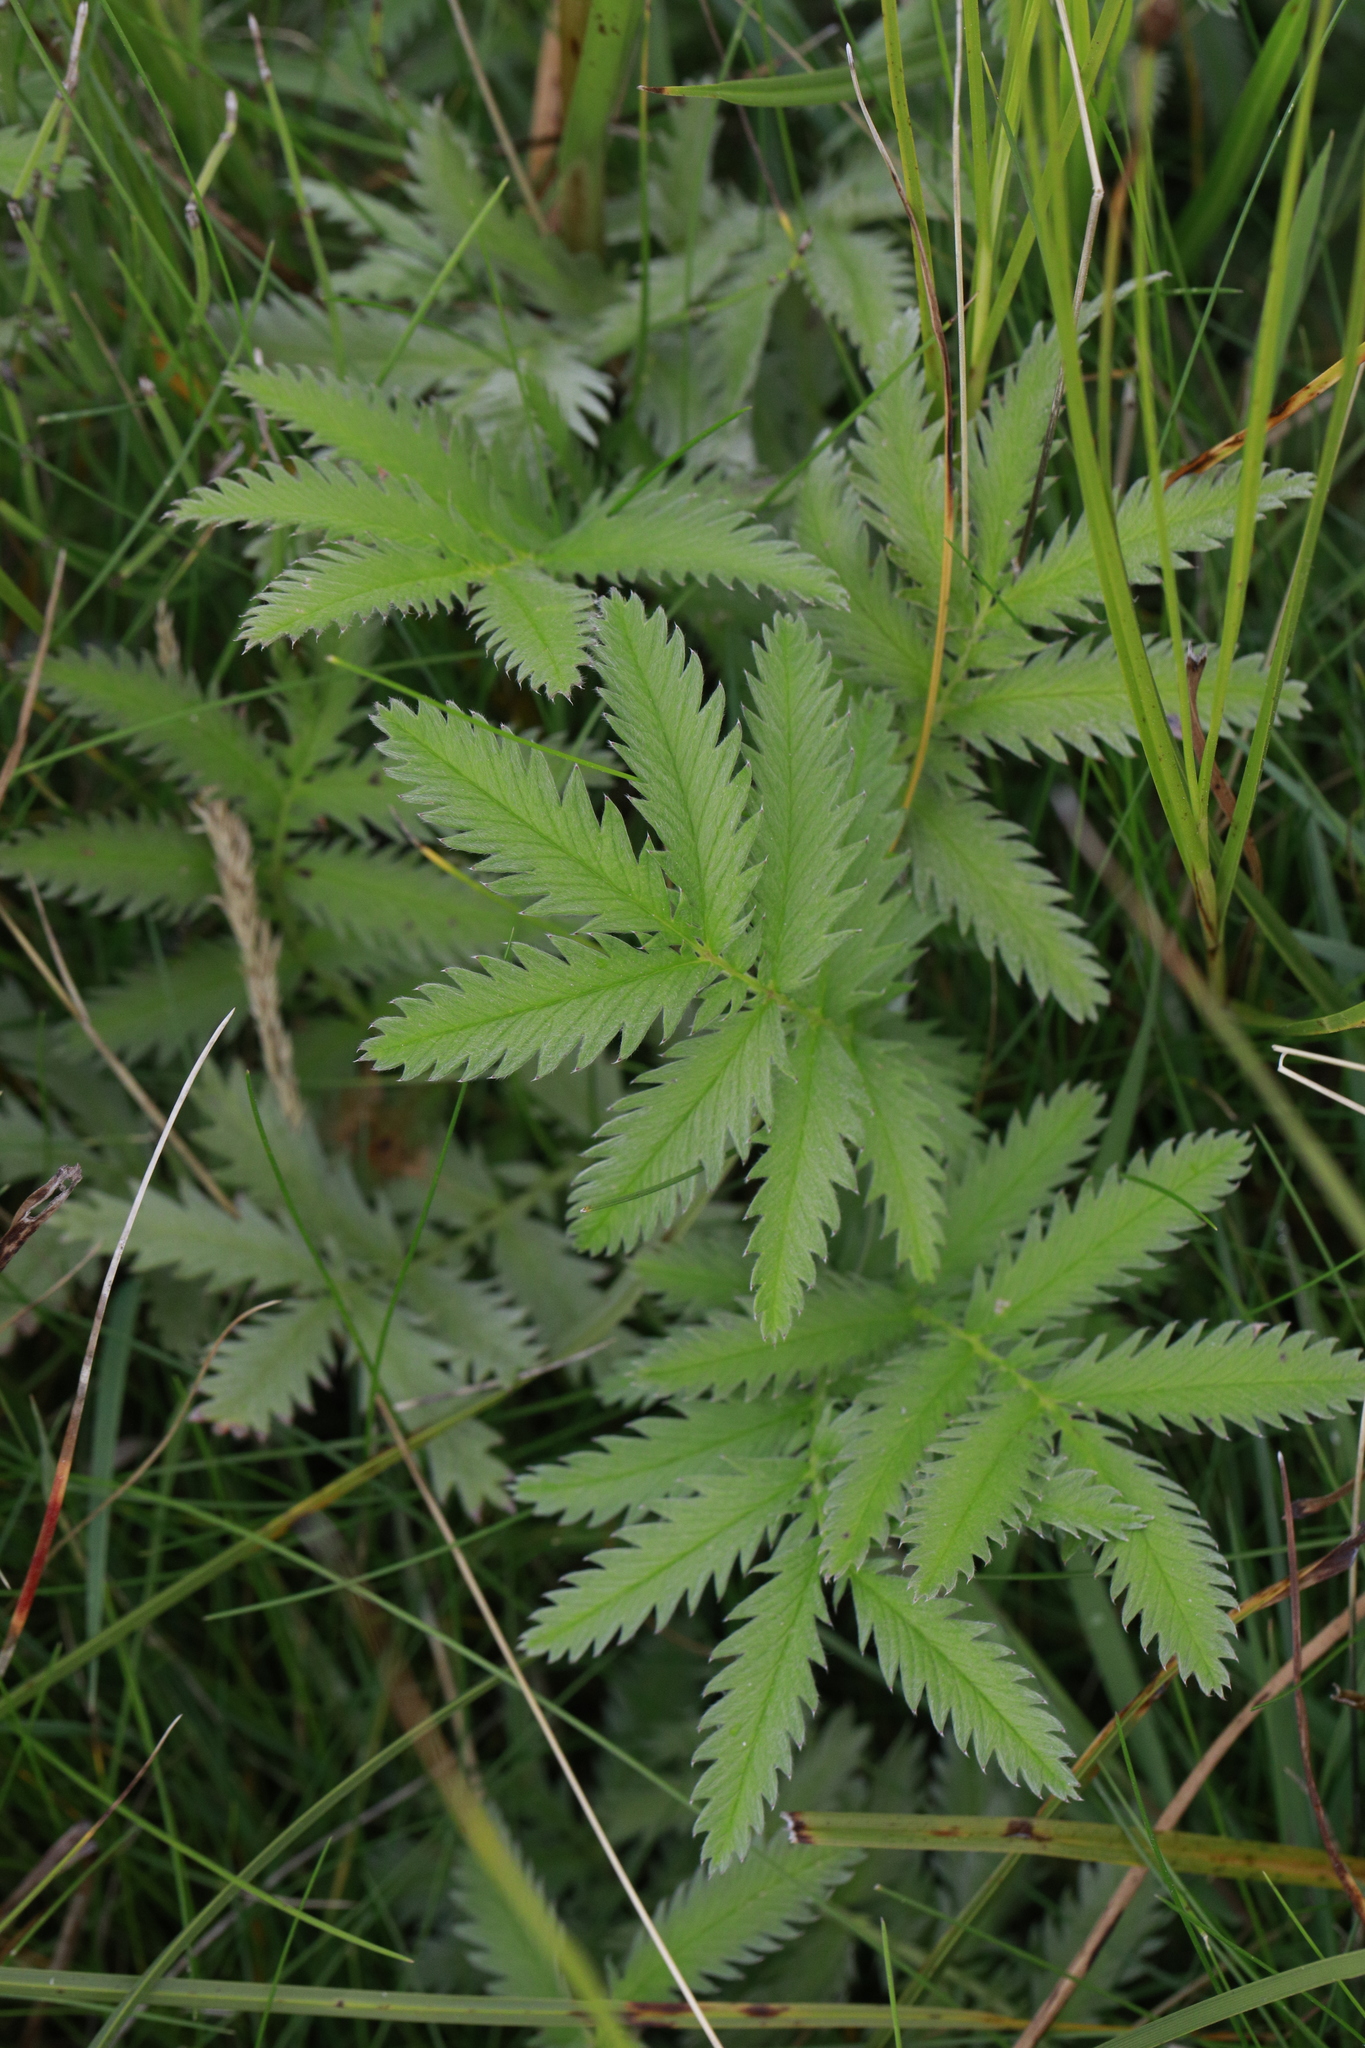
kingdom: Plantae
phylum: Tracheophyta
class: Magnoliopsida
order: Rosales
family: Rosaceae
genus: Argentina
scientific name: Argentina anserina
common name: Common silverweed
